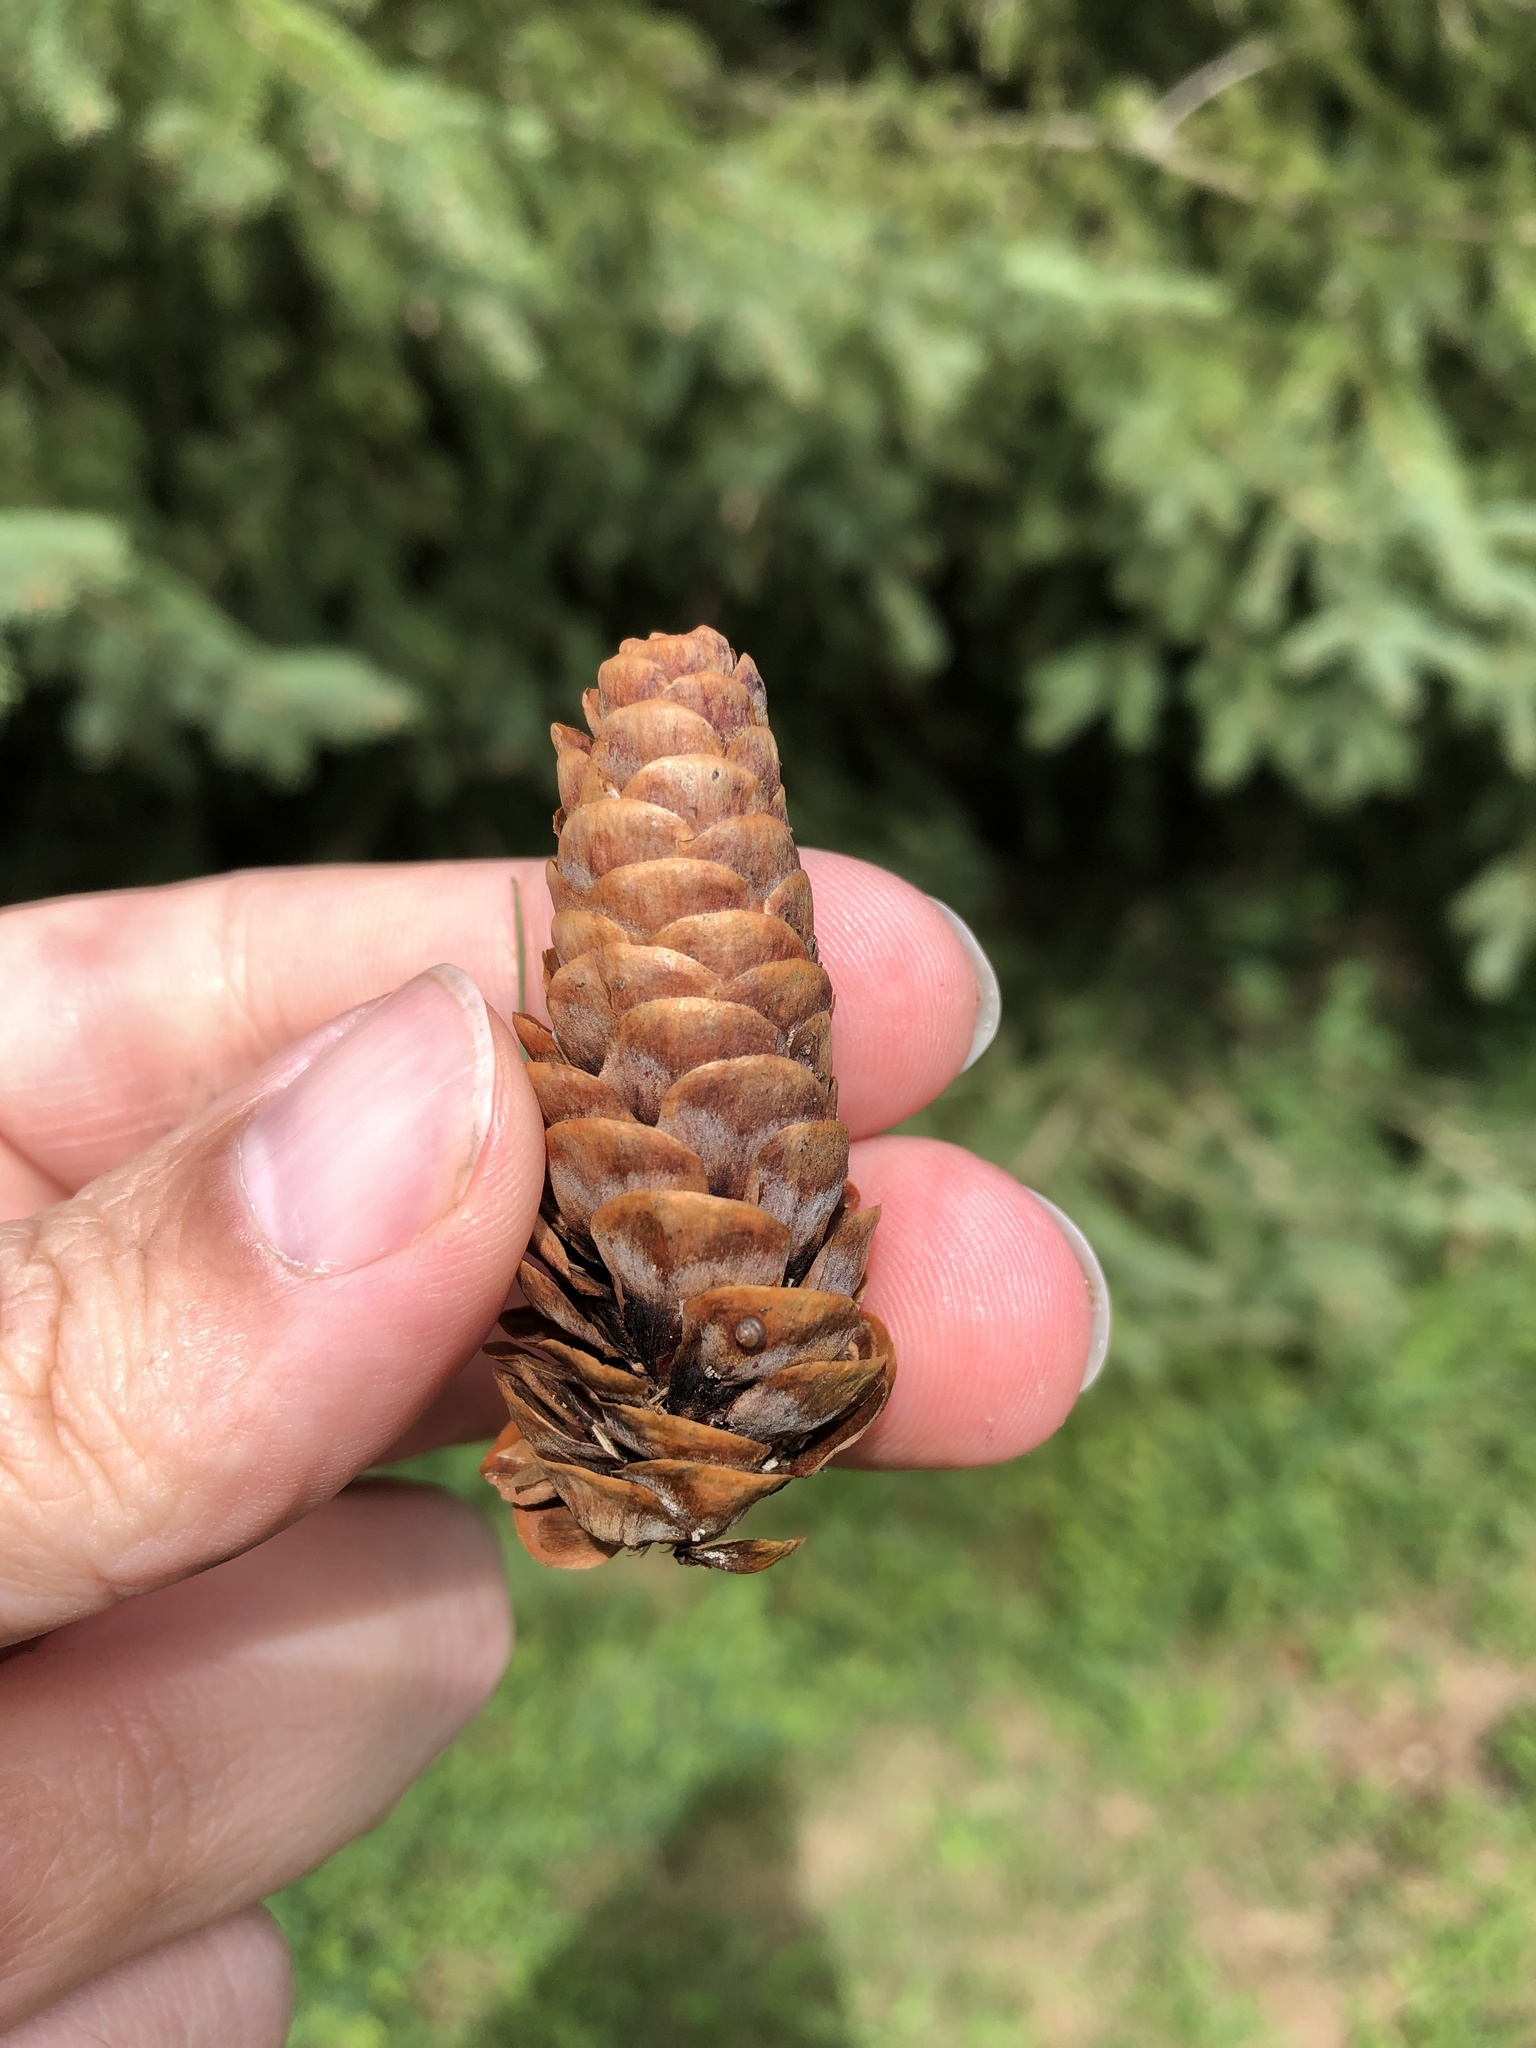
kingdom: Plantae
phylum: Tracheophyta
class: Pinopsida
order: Pinales
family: Pinaceae
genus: Picea
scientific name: Picea glauca
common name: White spruce
